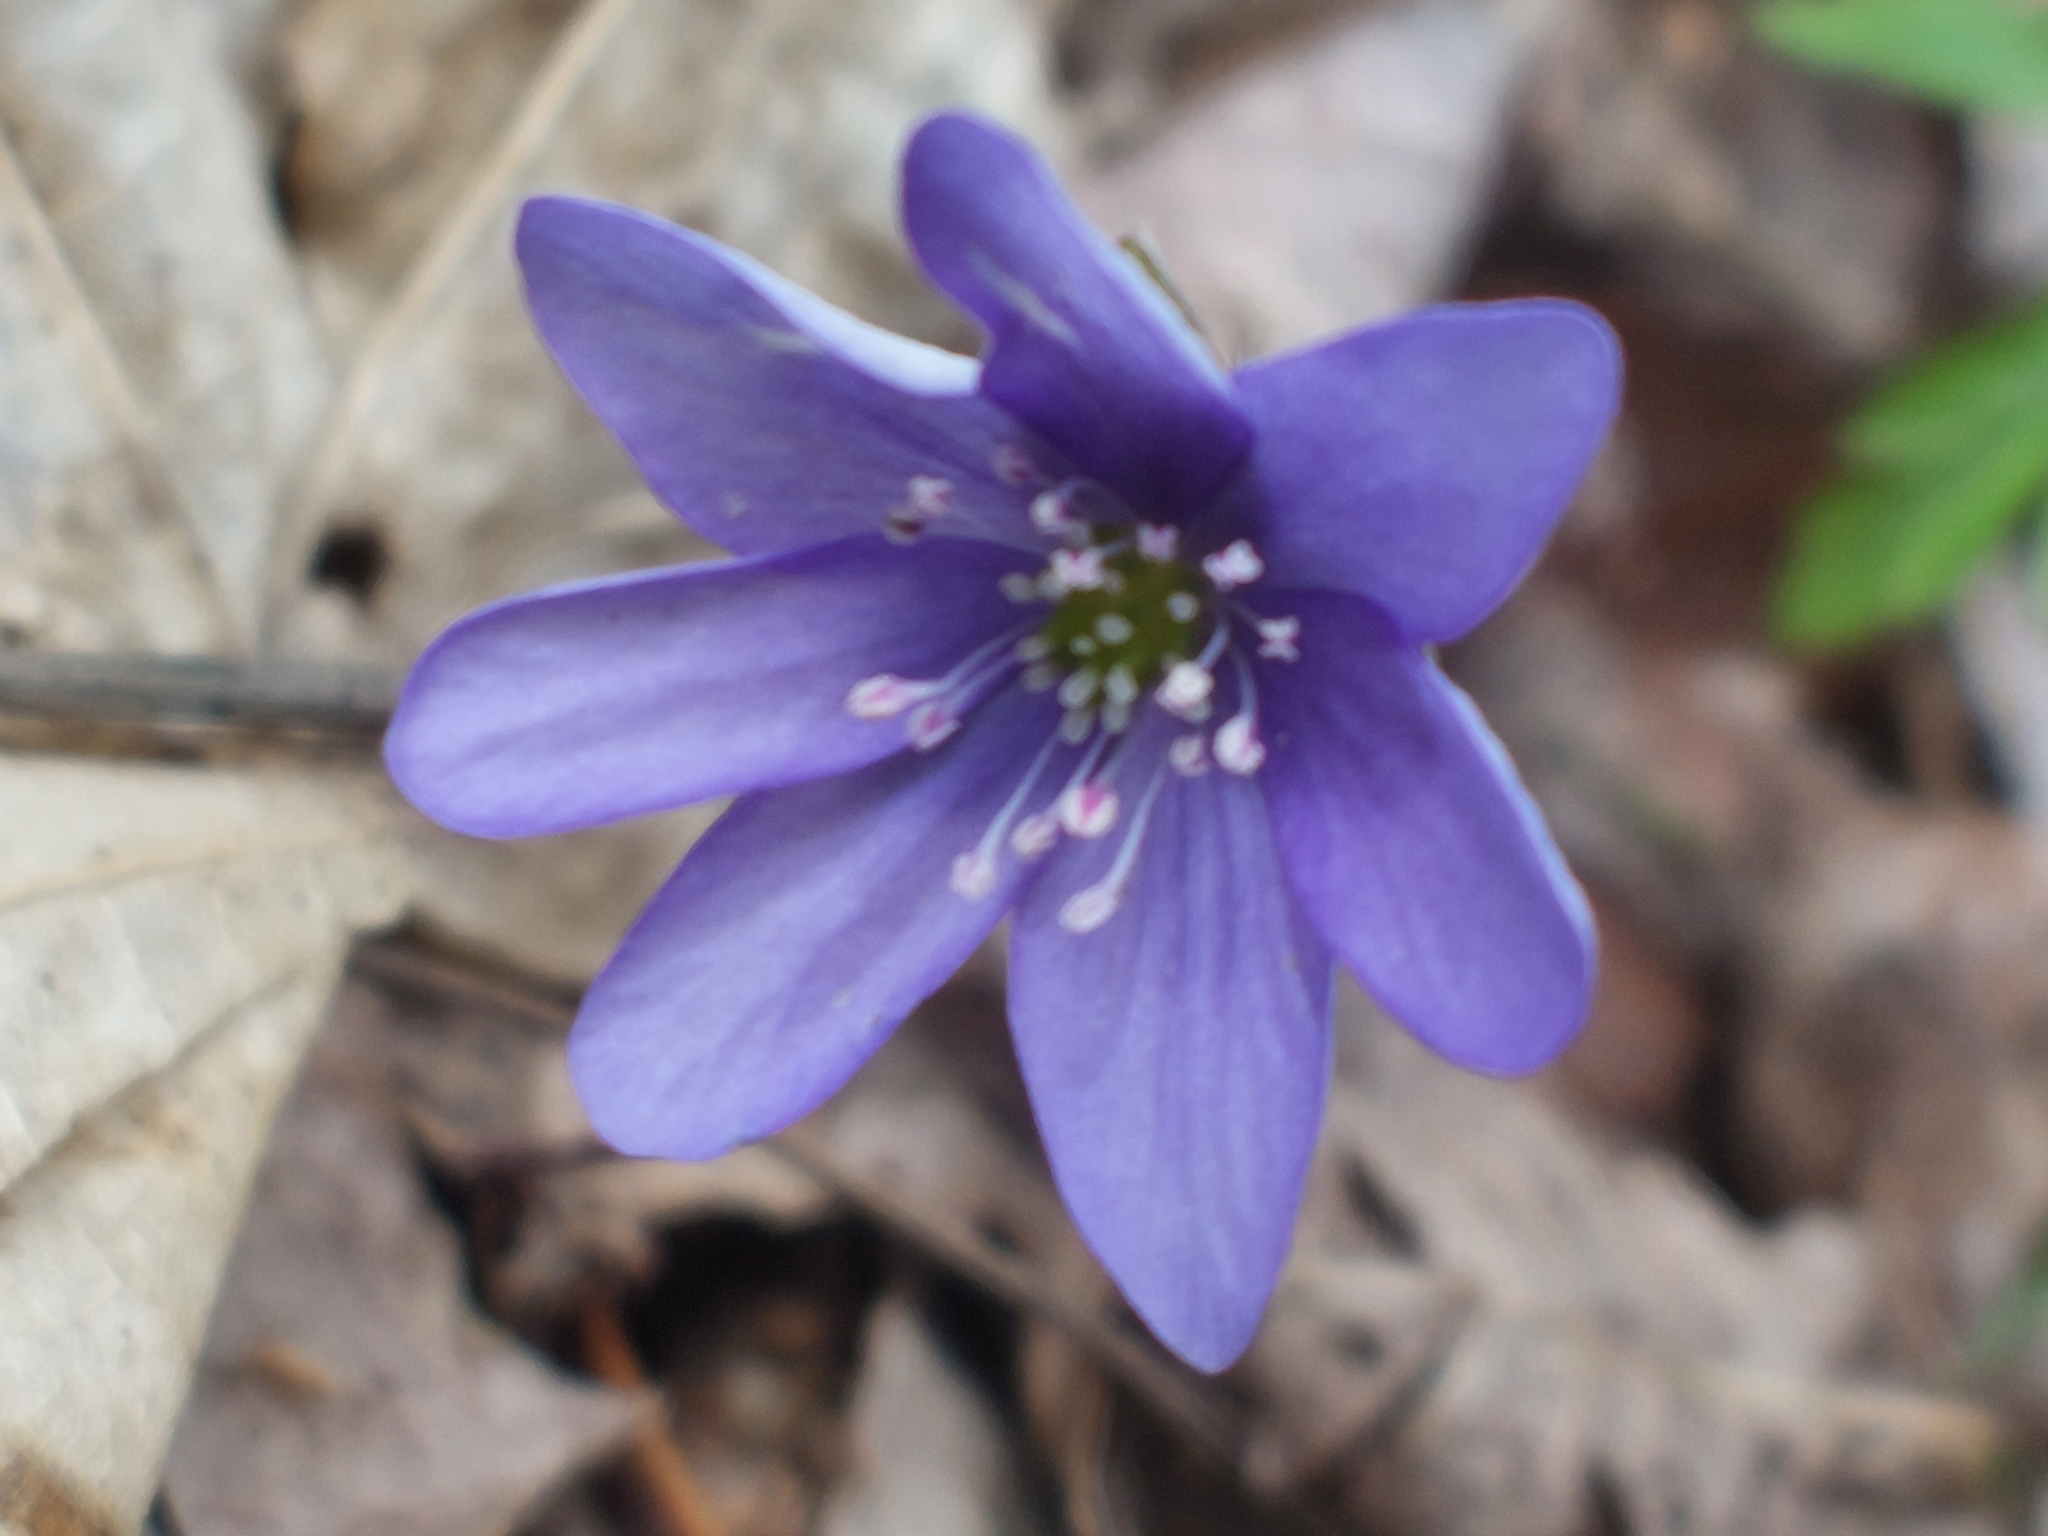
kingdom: Plantae
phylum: Tracheophyta
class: Magnoliopsida
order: Ranunculales
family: Ranunculaceae
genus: Hepatica
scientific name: Hepatica nobilis
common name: Liverleaf
